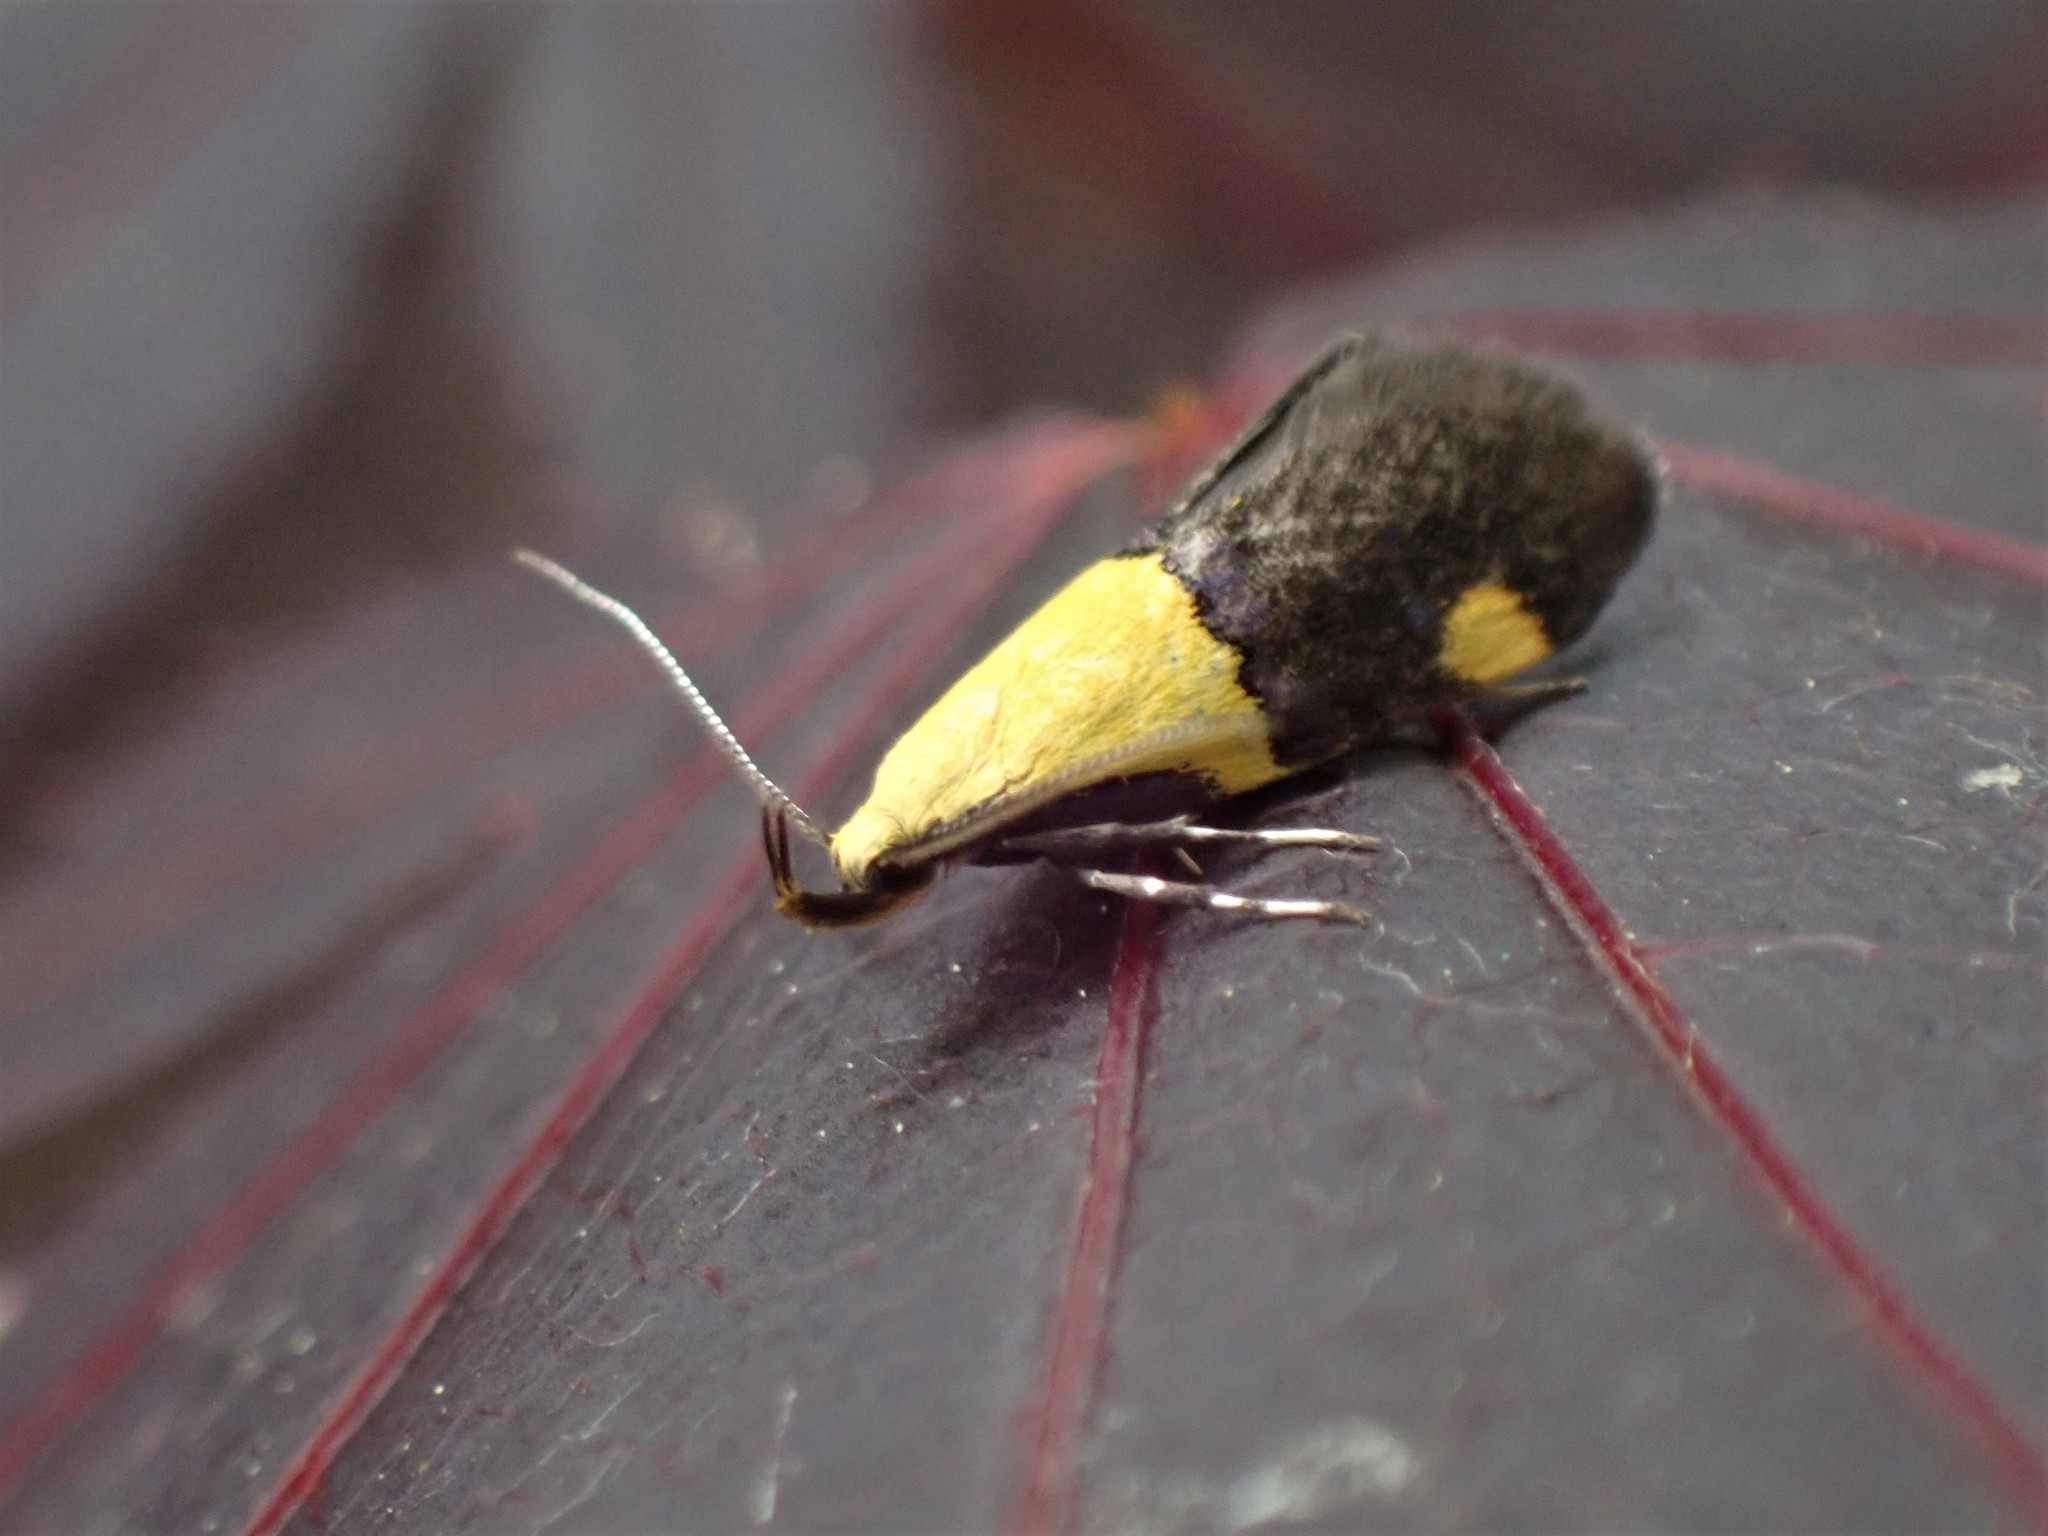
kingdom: Animalia
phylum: Arthropoda
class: Insecta
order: Lepidoptera
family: Oecophoridae
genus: Oecophora
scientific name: Oecophora bractella
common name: Gold-base tubic
